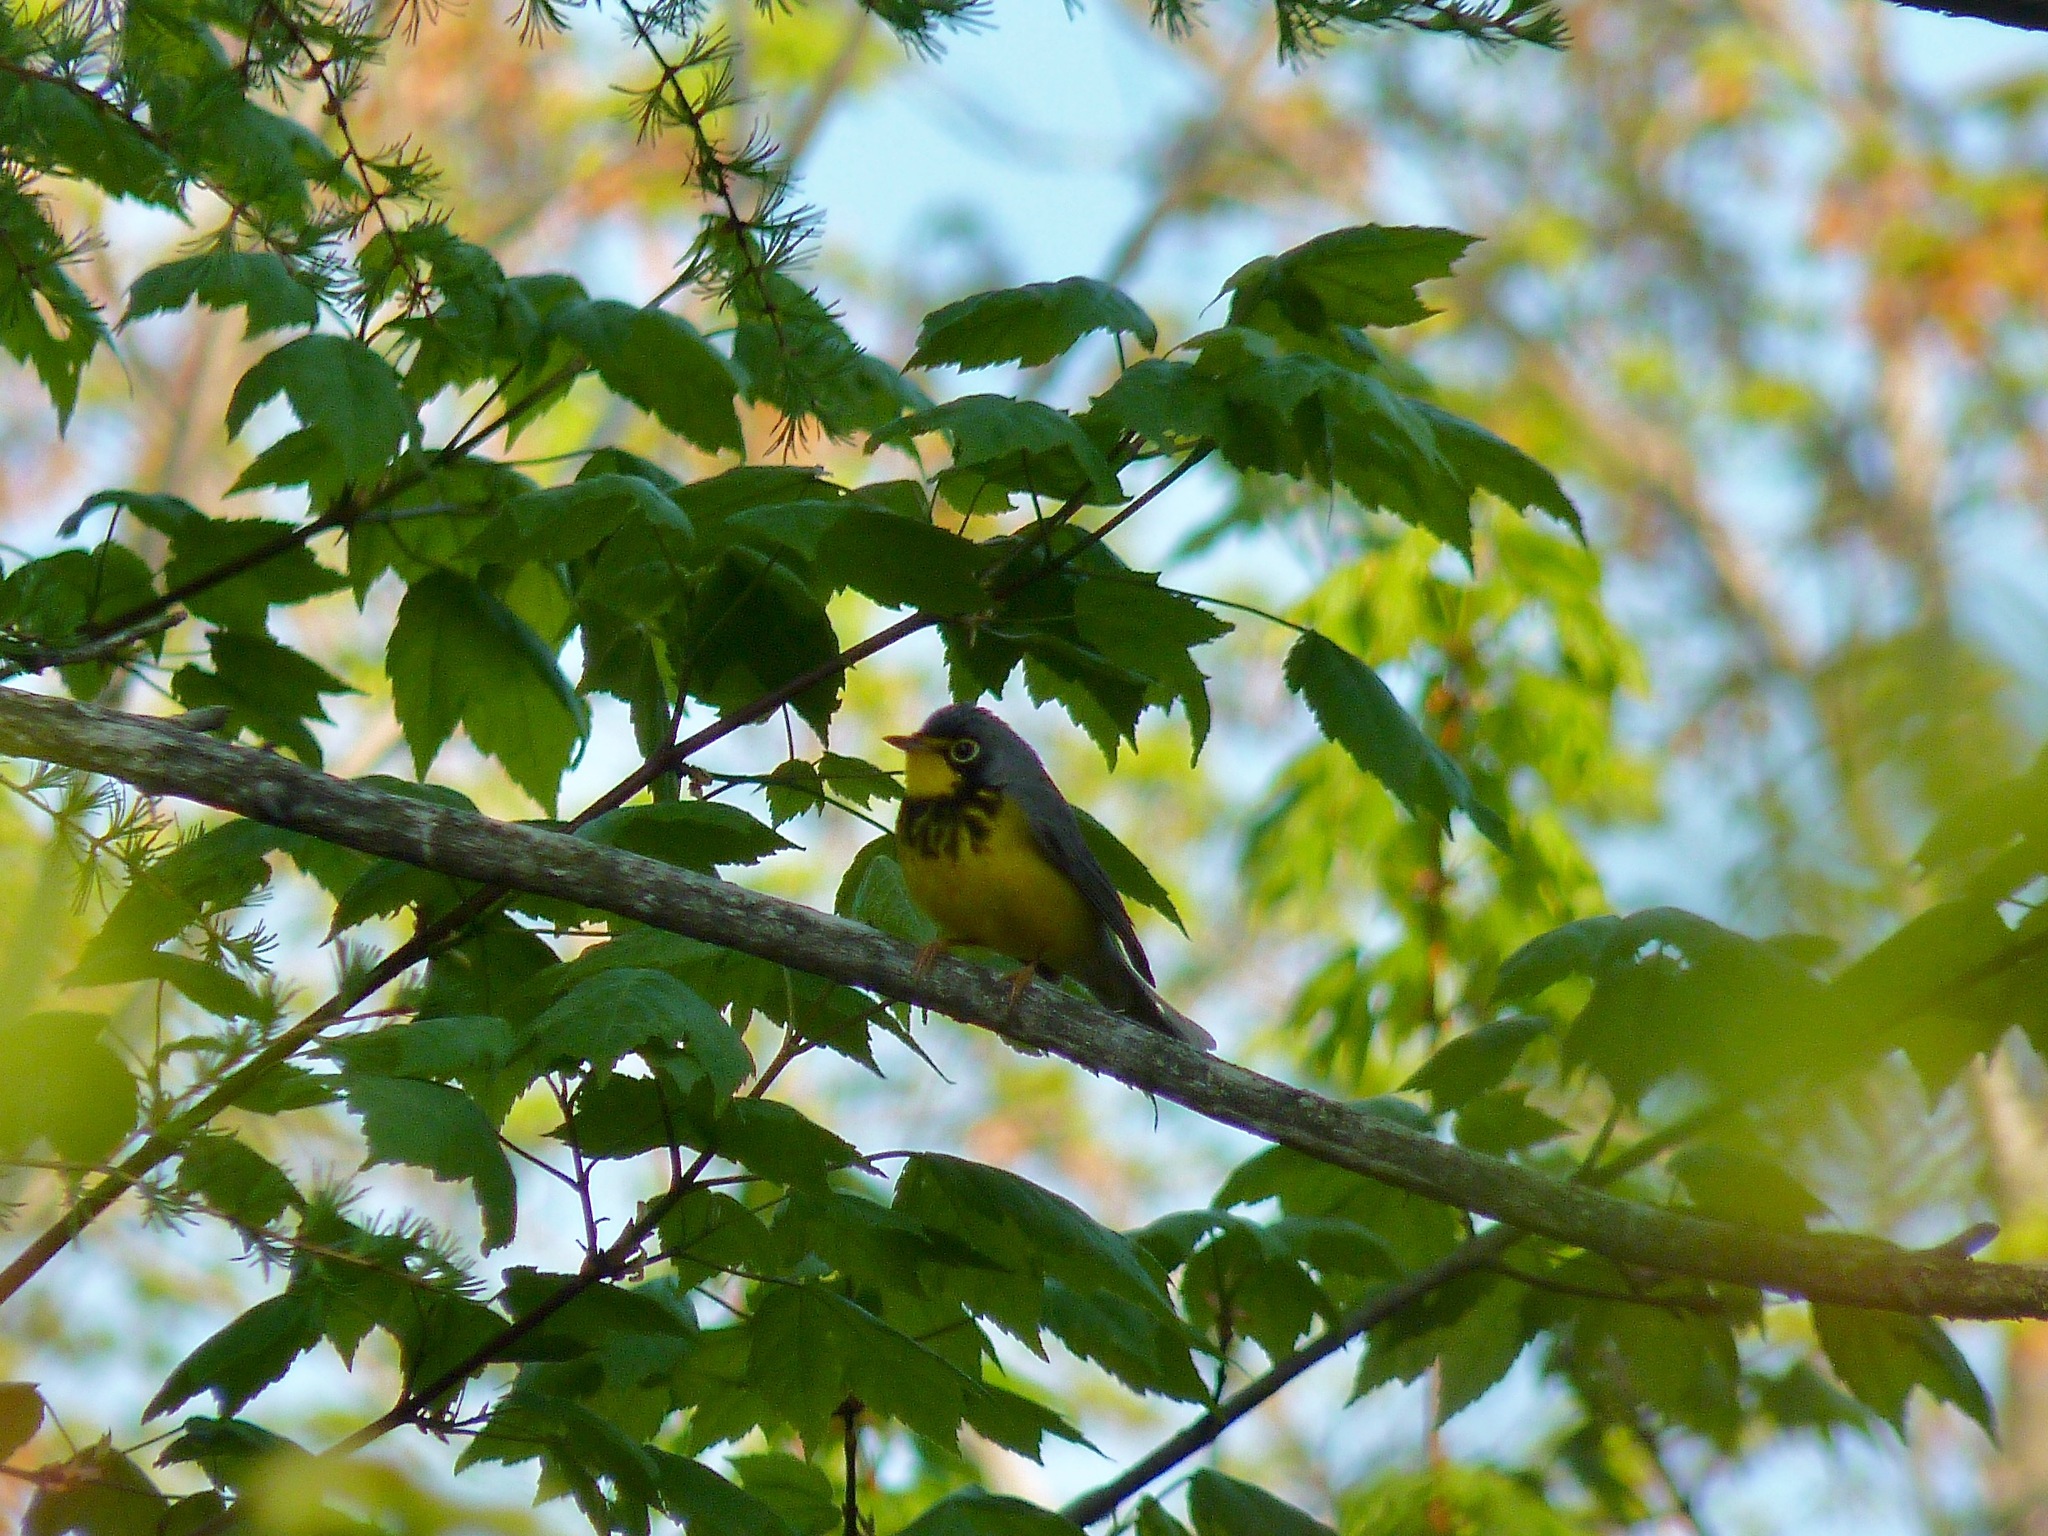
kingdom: Animalia
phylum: Chordata
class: Aves
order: Passeriformes
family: Parulidae
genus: Cardellina
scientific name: Cardellina canadensis
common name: Canada warbler
